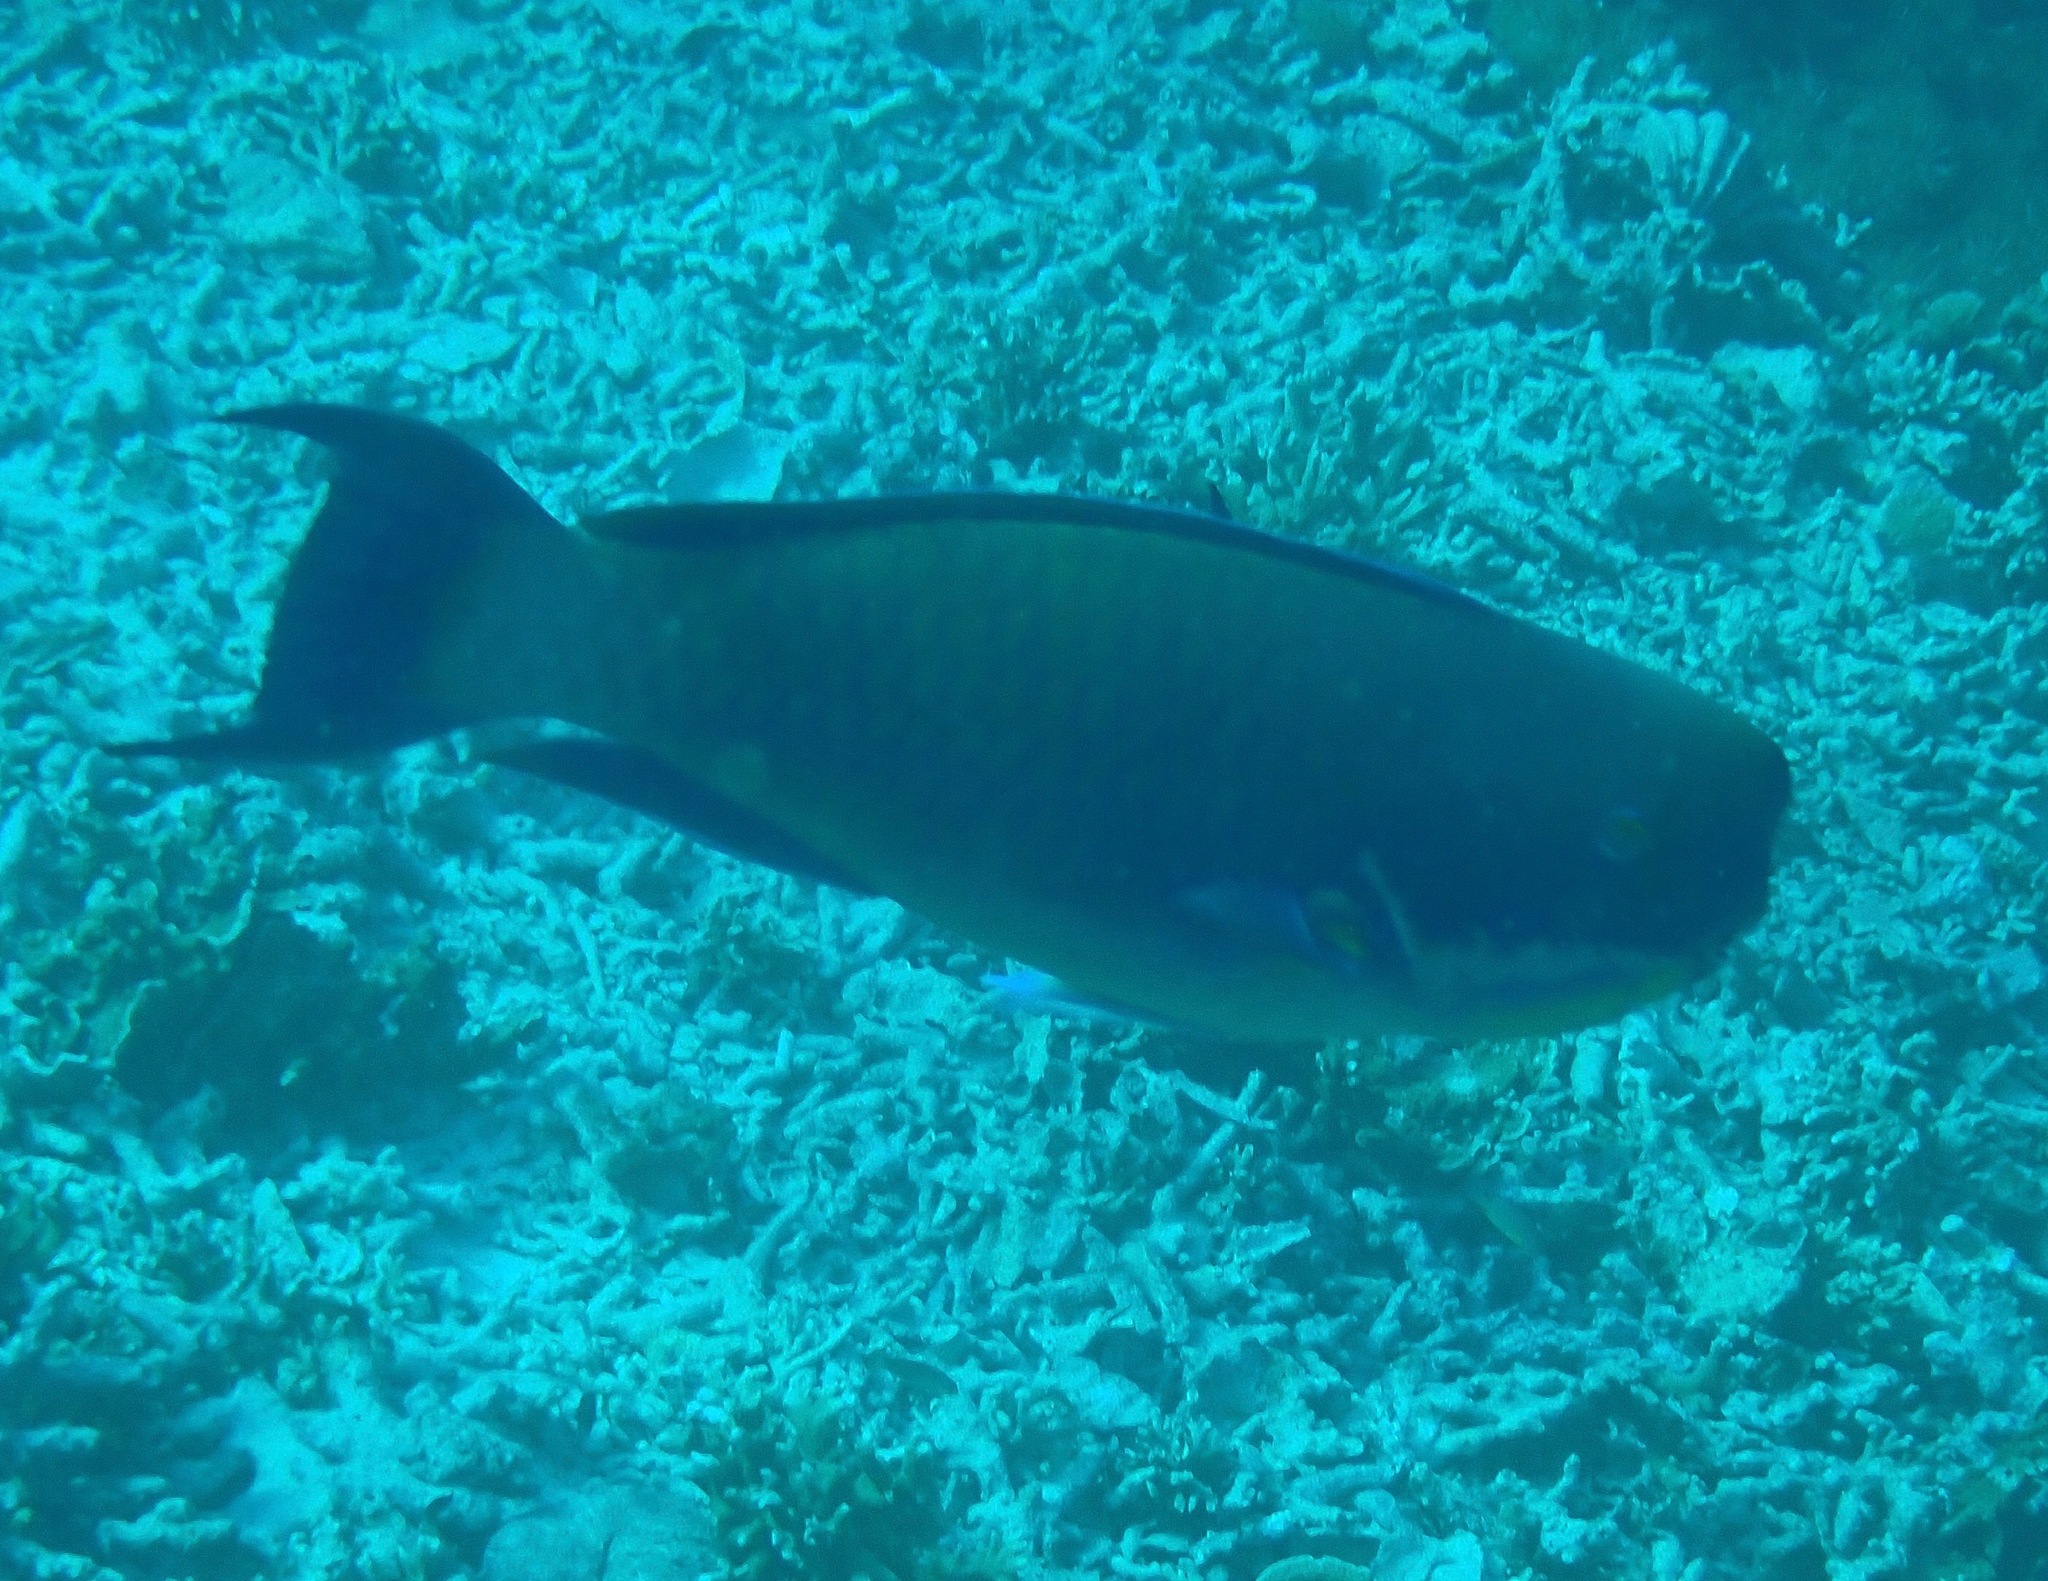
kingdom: Animalia
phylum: Chordata
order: Perciformes
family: Scaridae
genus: Chlorurus
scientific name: Chlorurus microrhinos
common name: Steephead parrotfish
